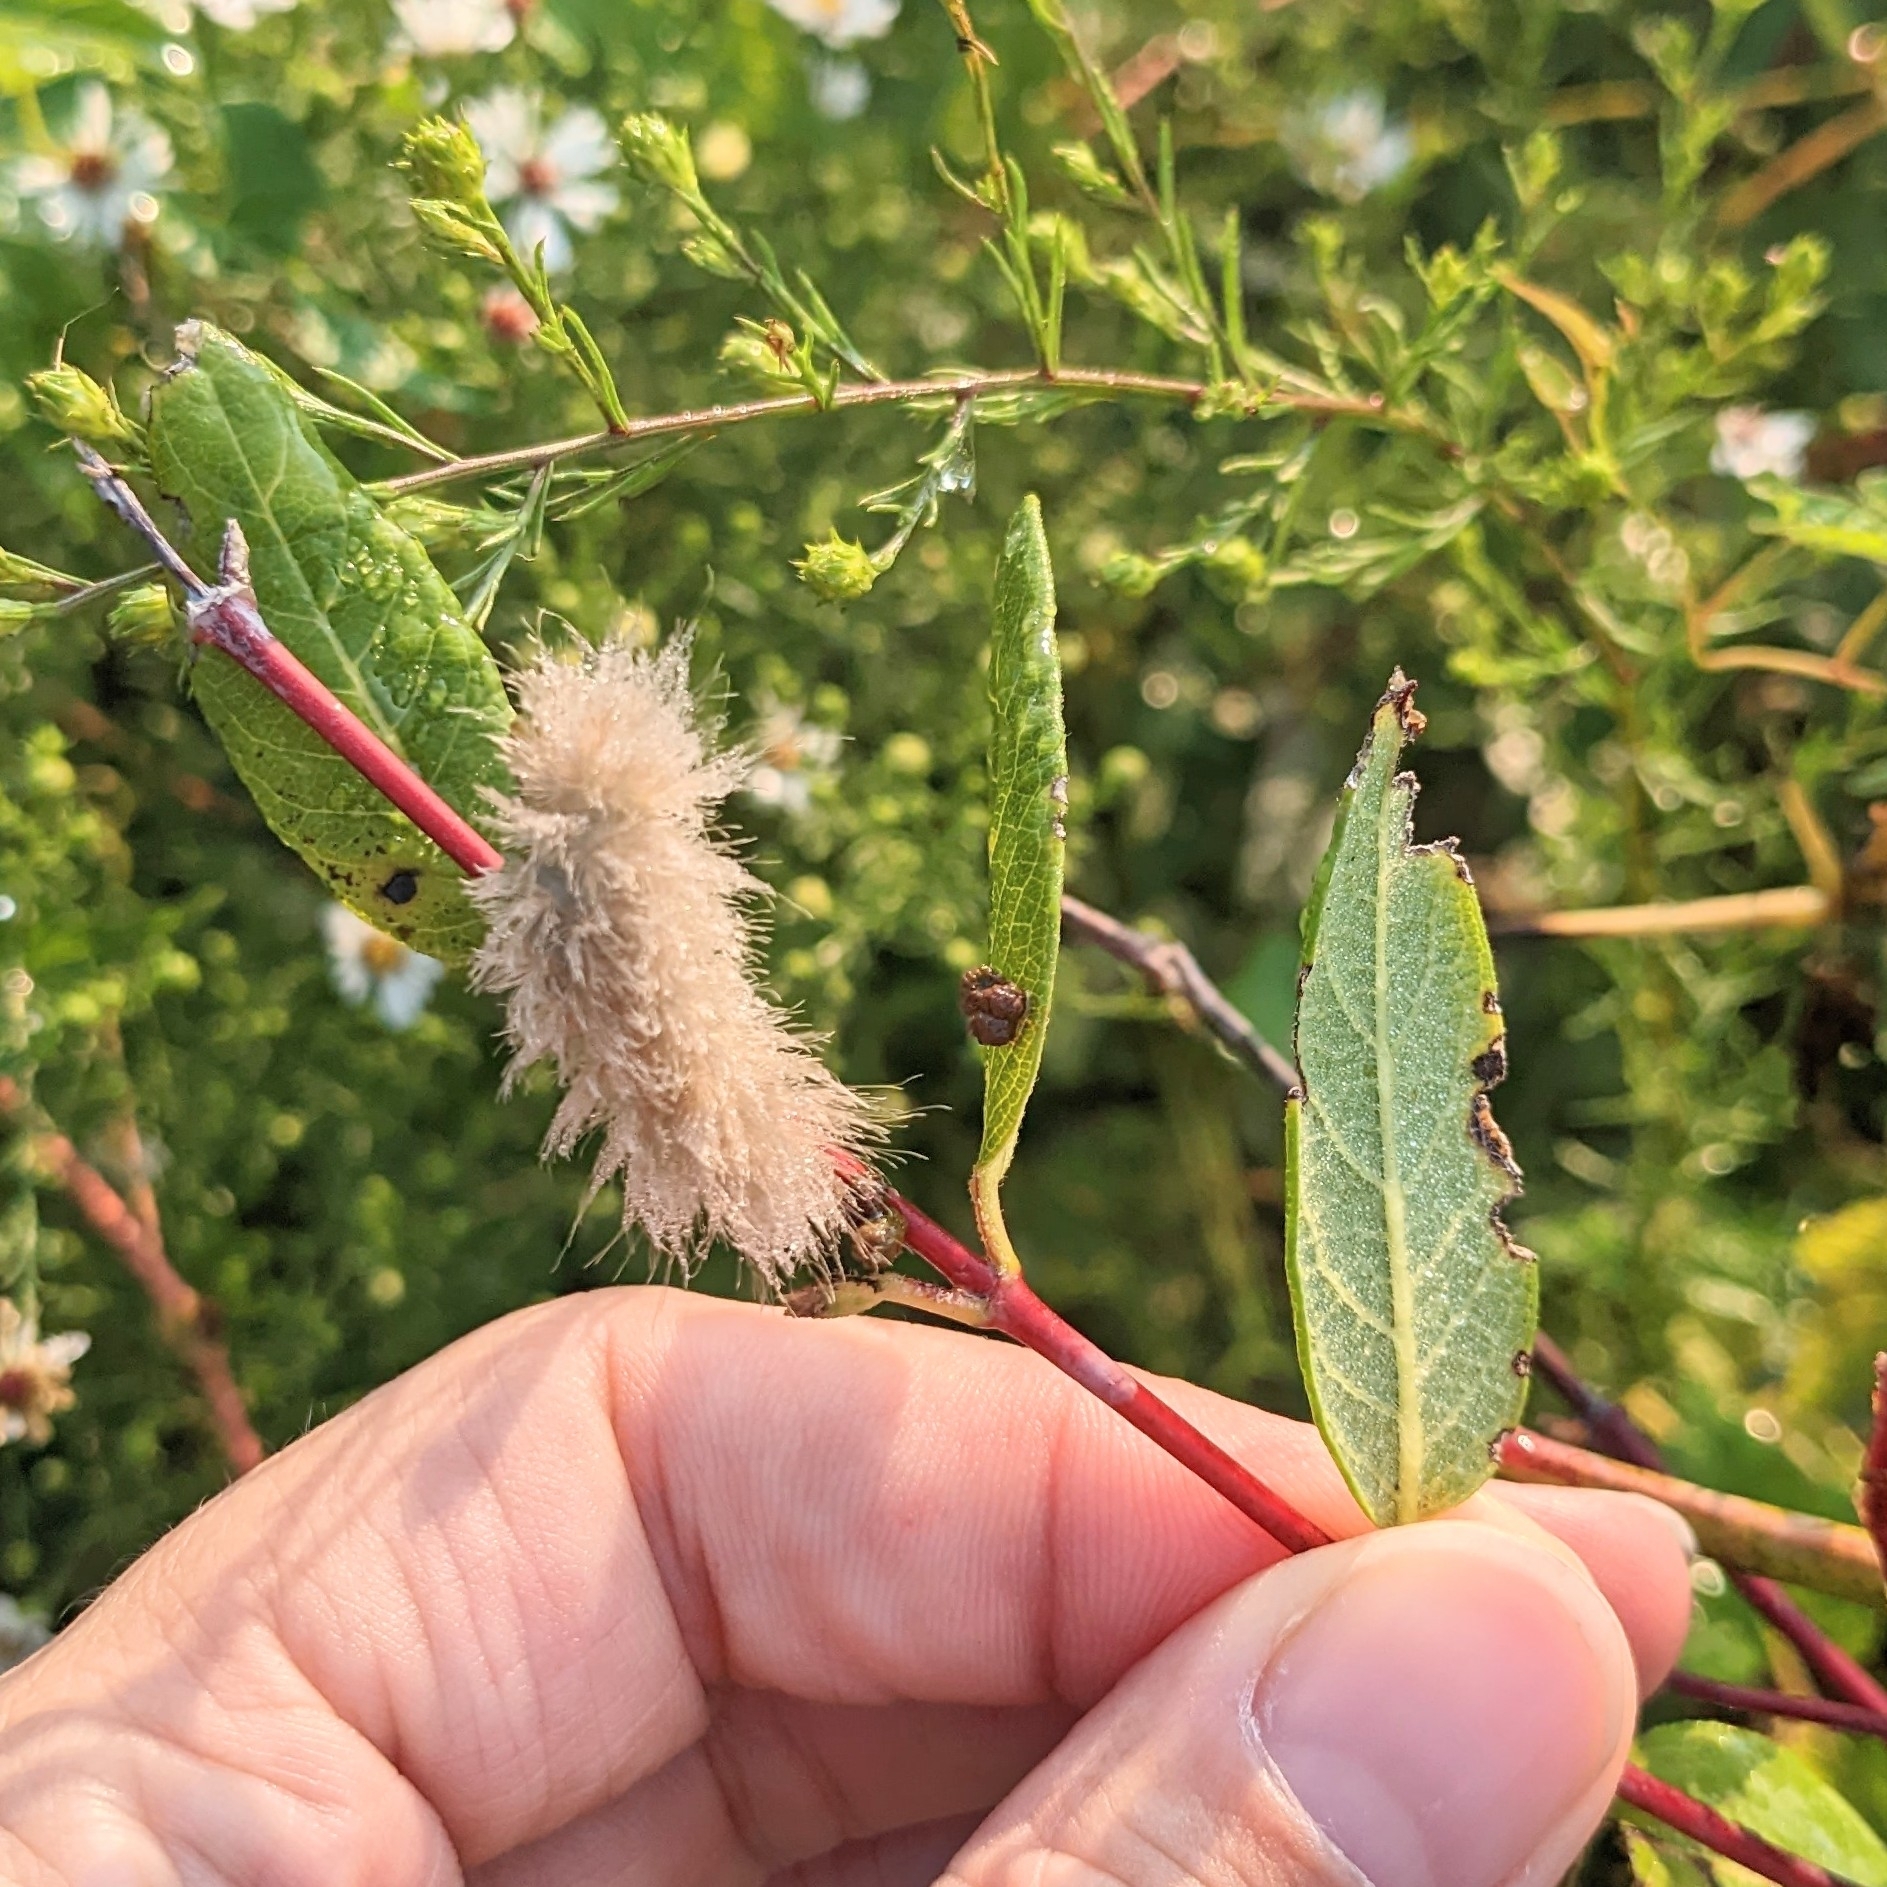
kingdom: Animalia
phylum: Arthropoda
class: Insecta
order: Lepidoptera
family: Erebidae
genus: Cycnia
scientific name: Cycnia tenera
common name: Delicate cycnia moth
